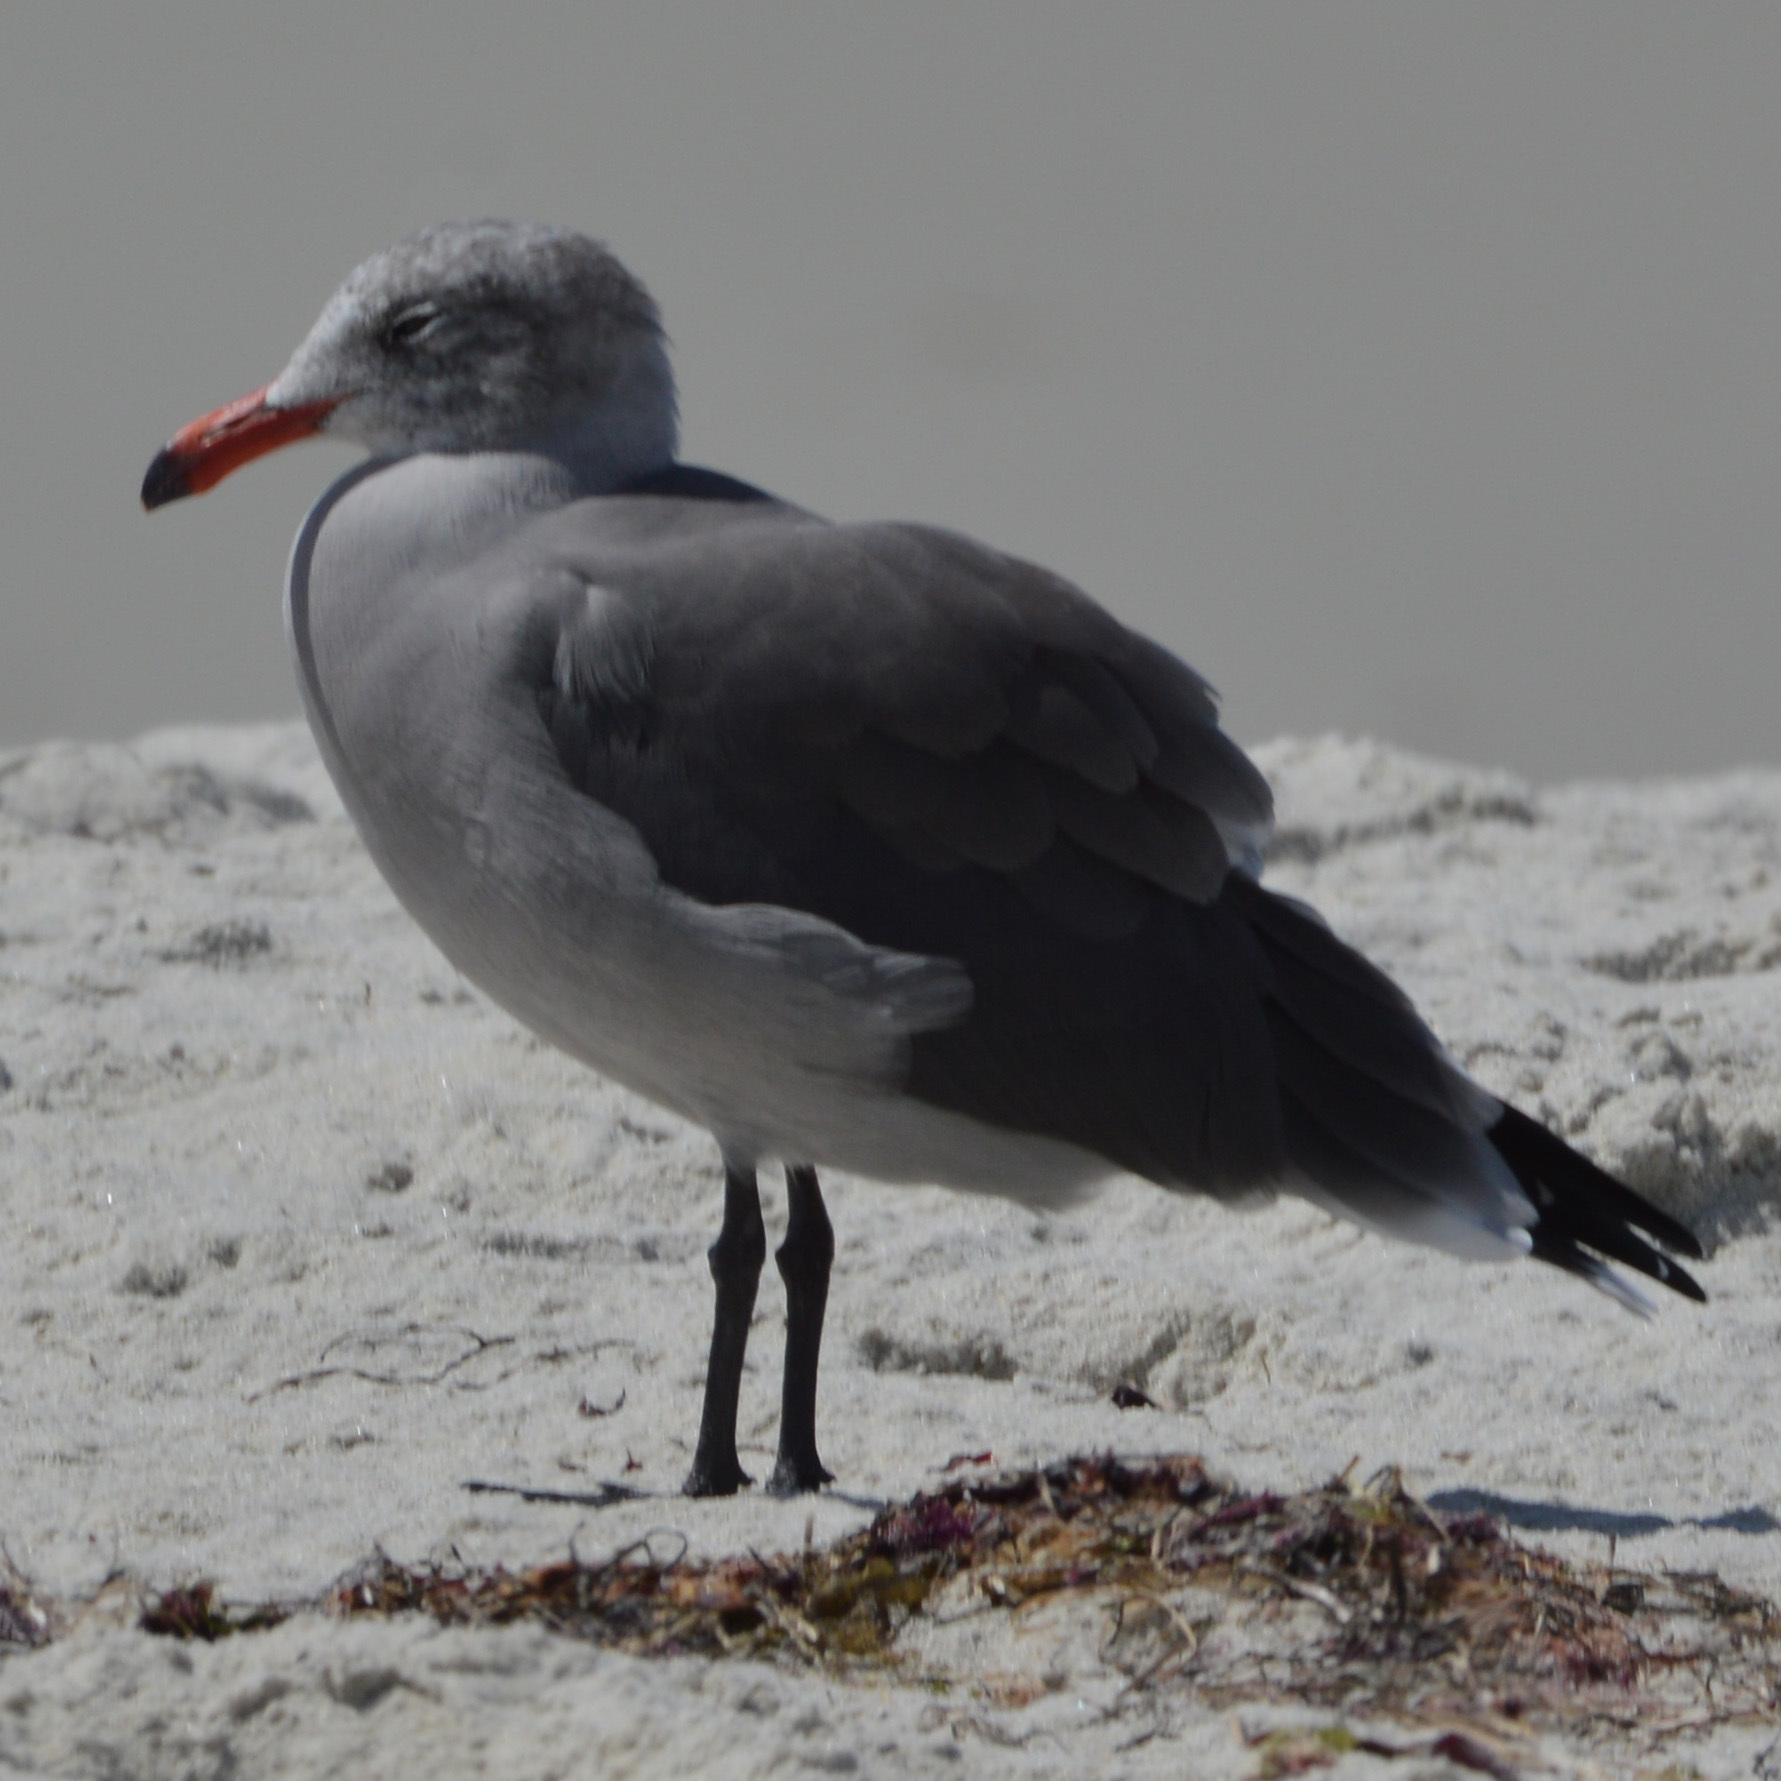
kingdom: Animalia
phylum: Chordata
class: Aves
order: Charadriiformes
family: Laridae
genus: Larus
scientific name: Larus heermanni
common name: Heermann's gull
